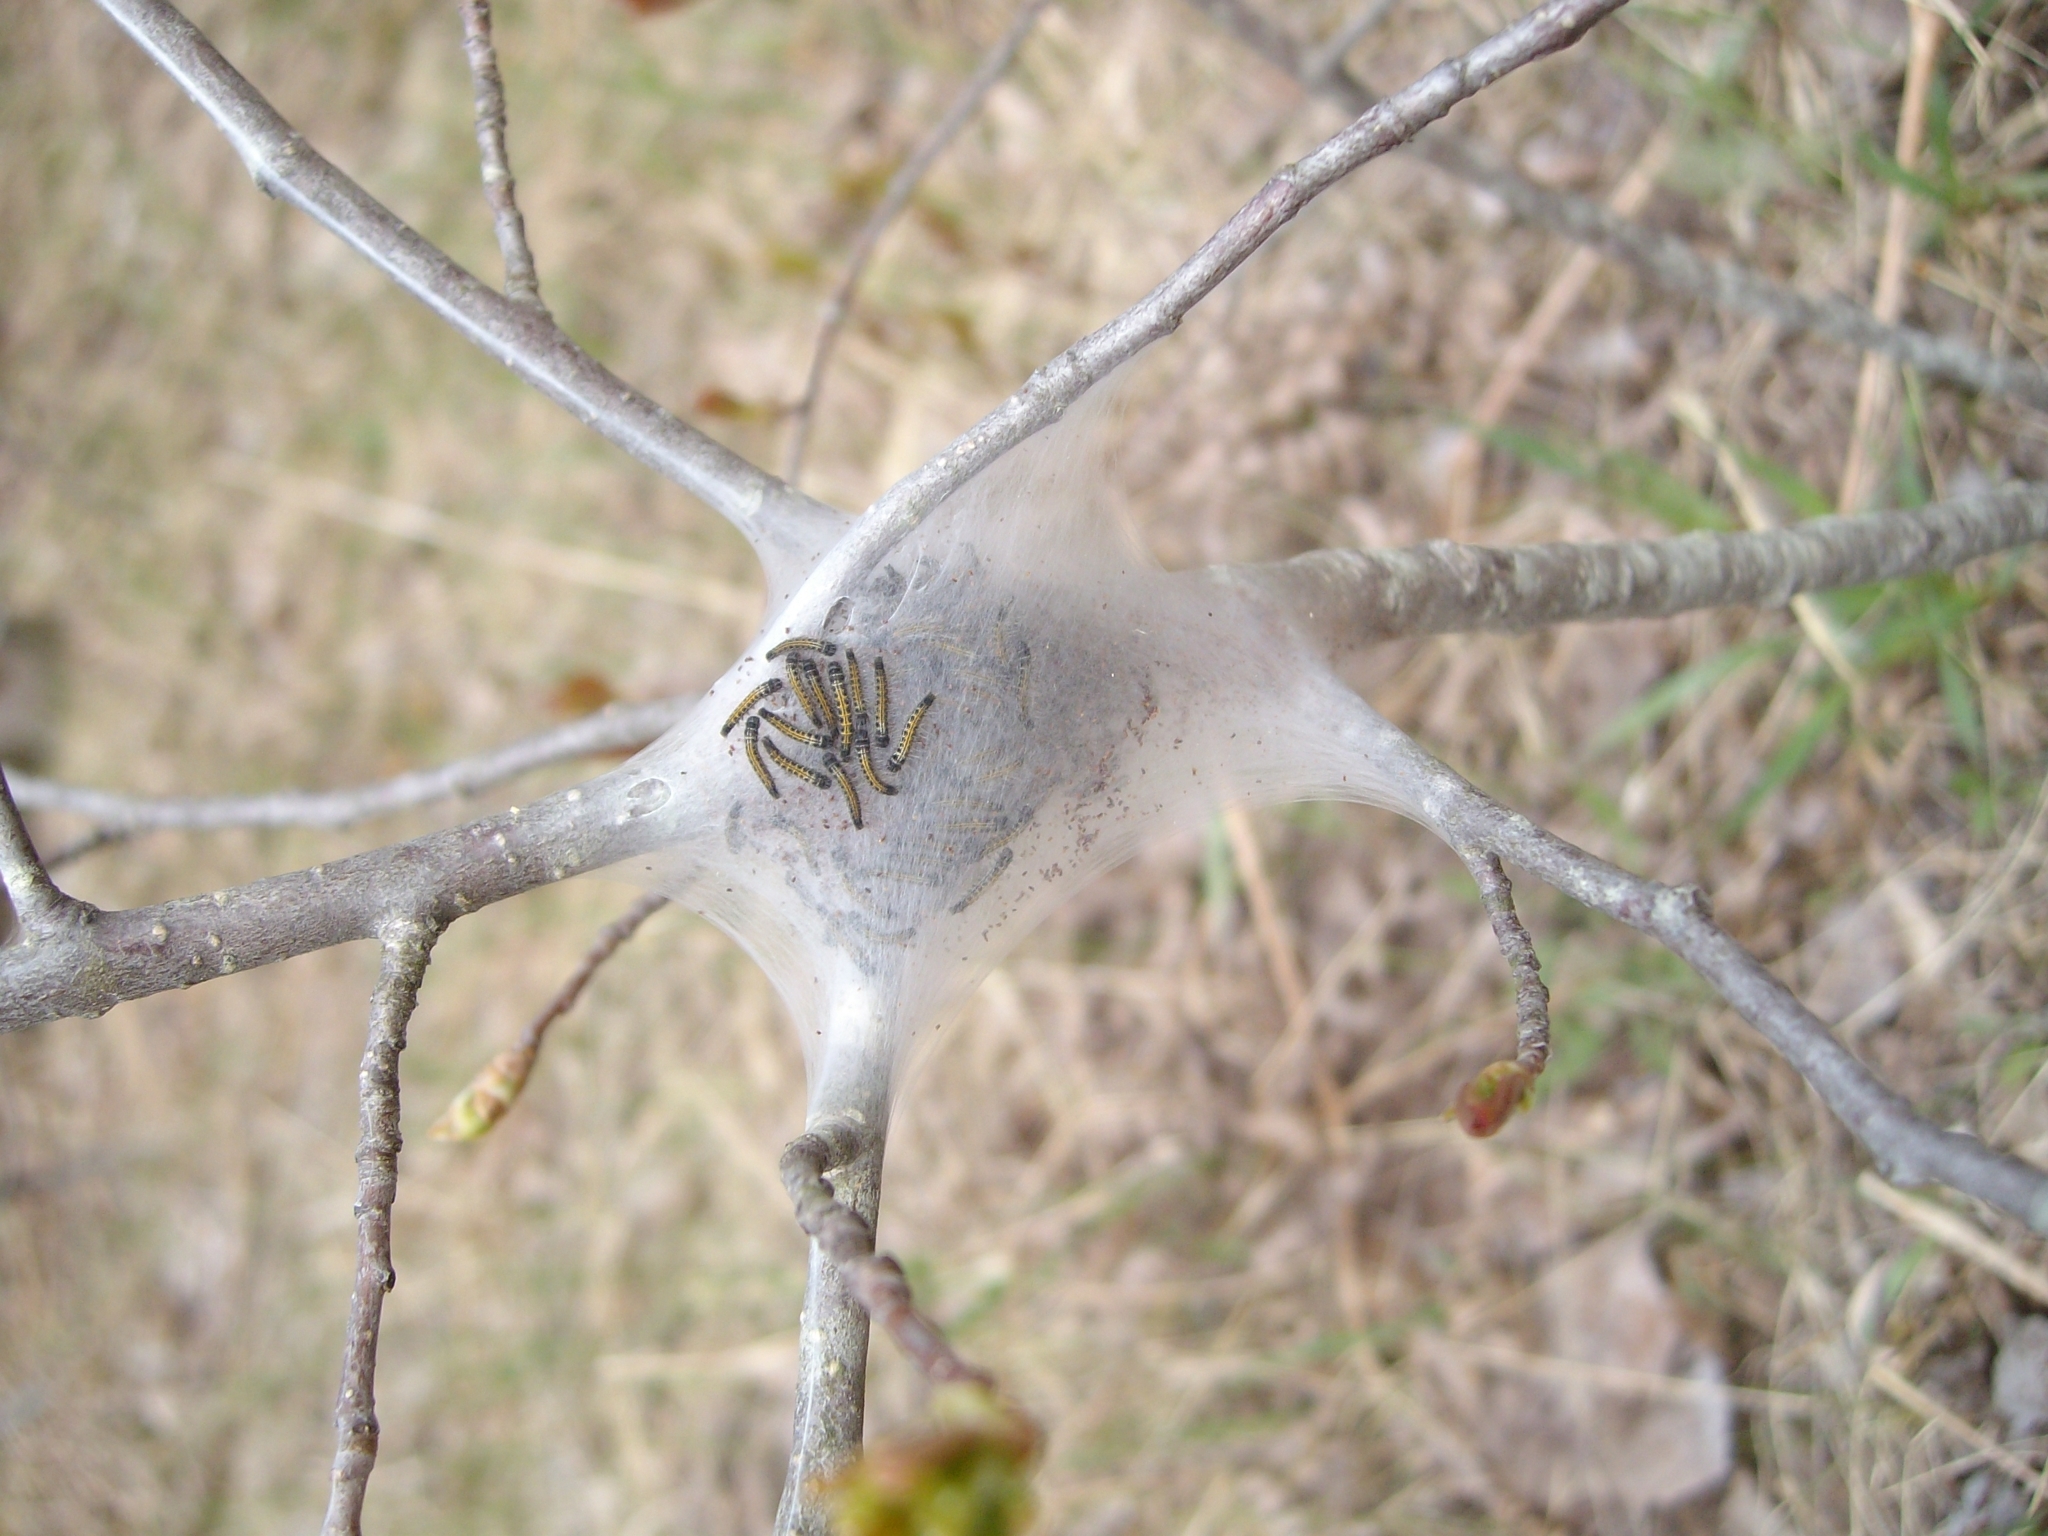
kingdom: Animalia
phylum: Arthropoda
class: Insecta
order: Lepidoptera
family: Lasiocampidae
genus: Malacosoma
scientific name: Malacosoma americana
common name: Eastern tent caterpillar moth
